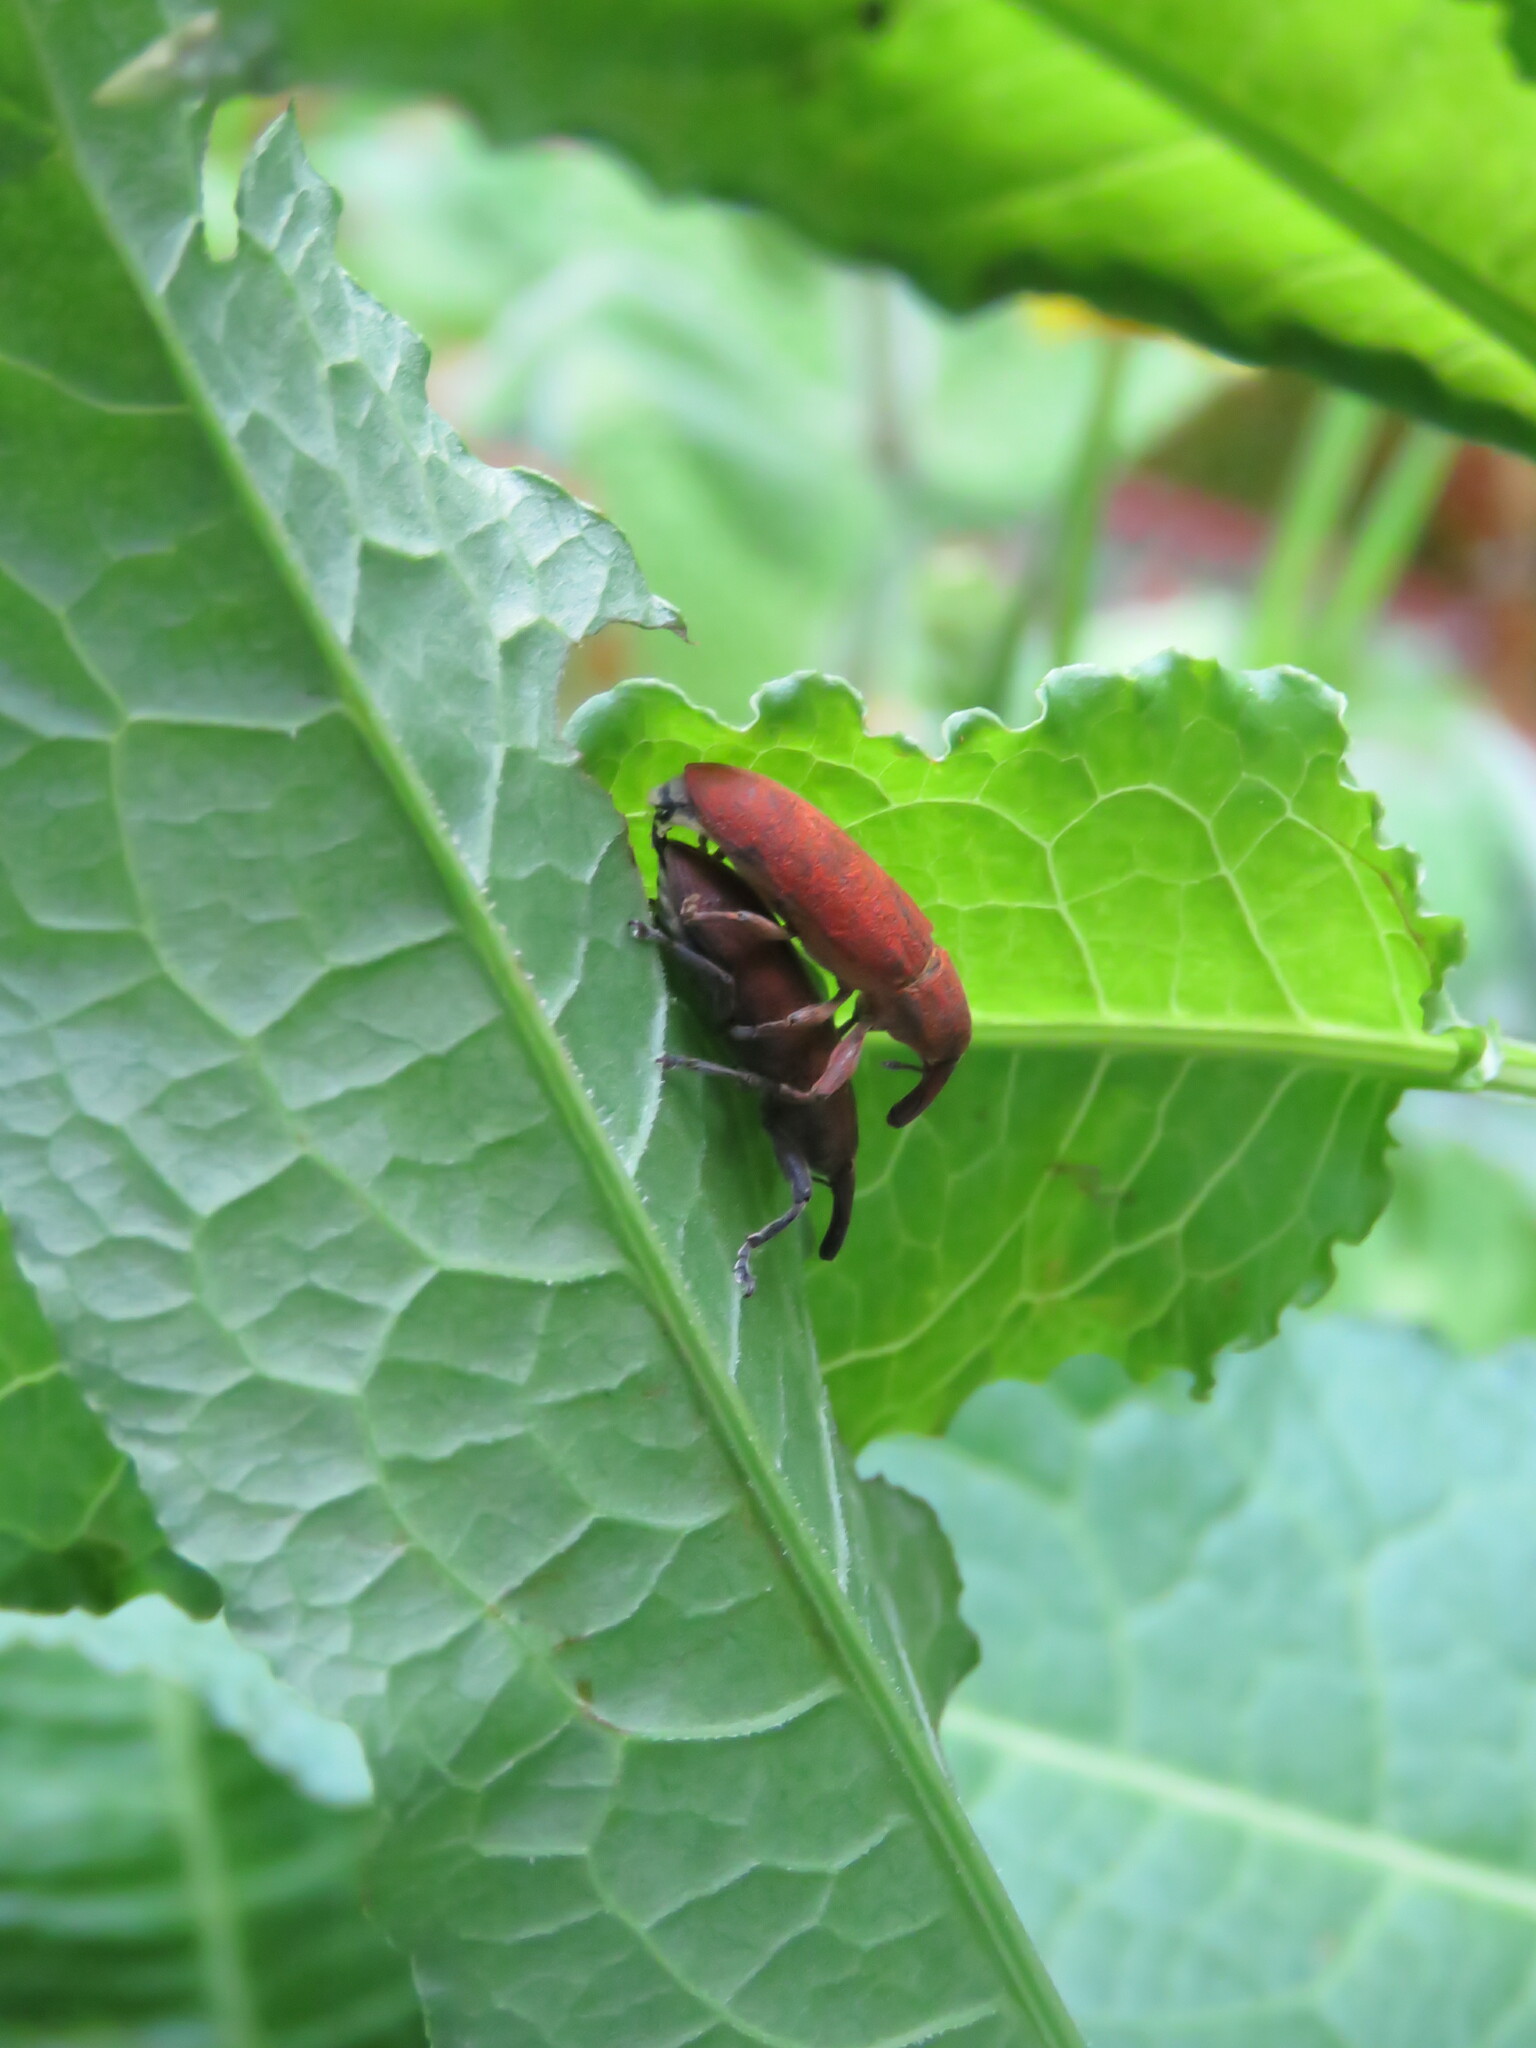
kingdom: Animalia
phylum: Arthropoda
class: Insecta
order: Coleoptera
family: Curculionidae
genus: Lixus
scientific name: Lixus linearis
